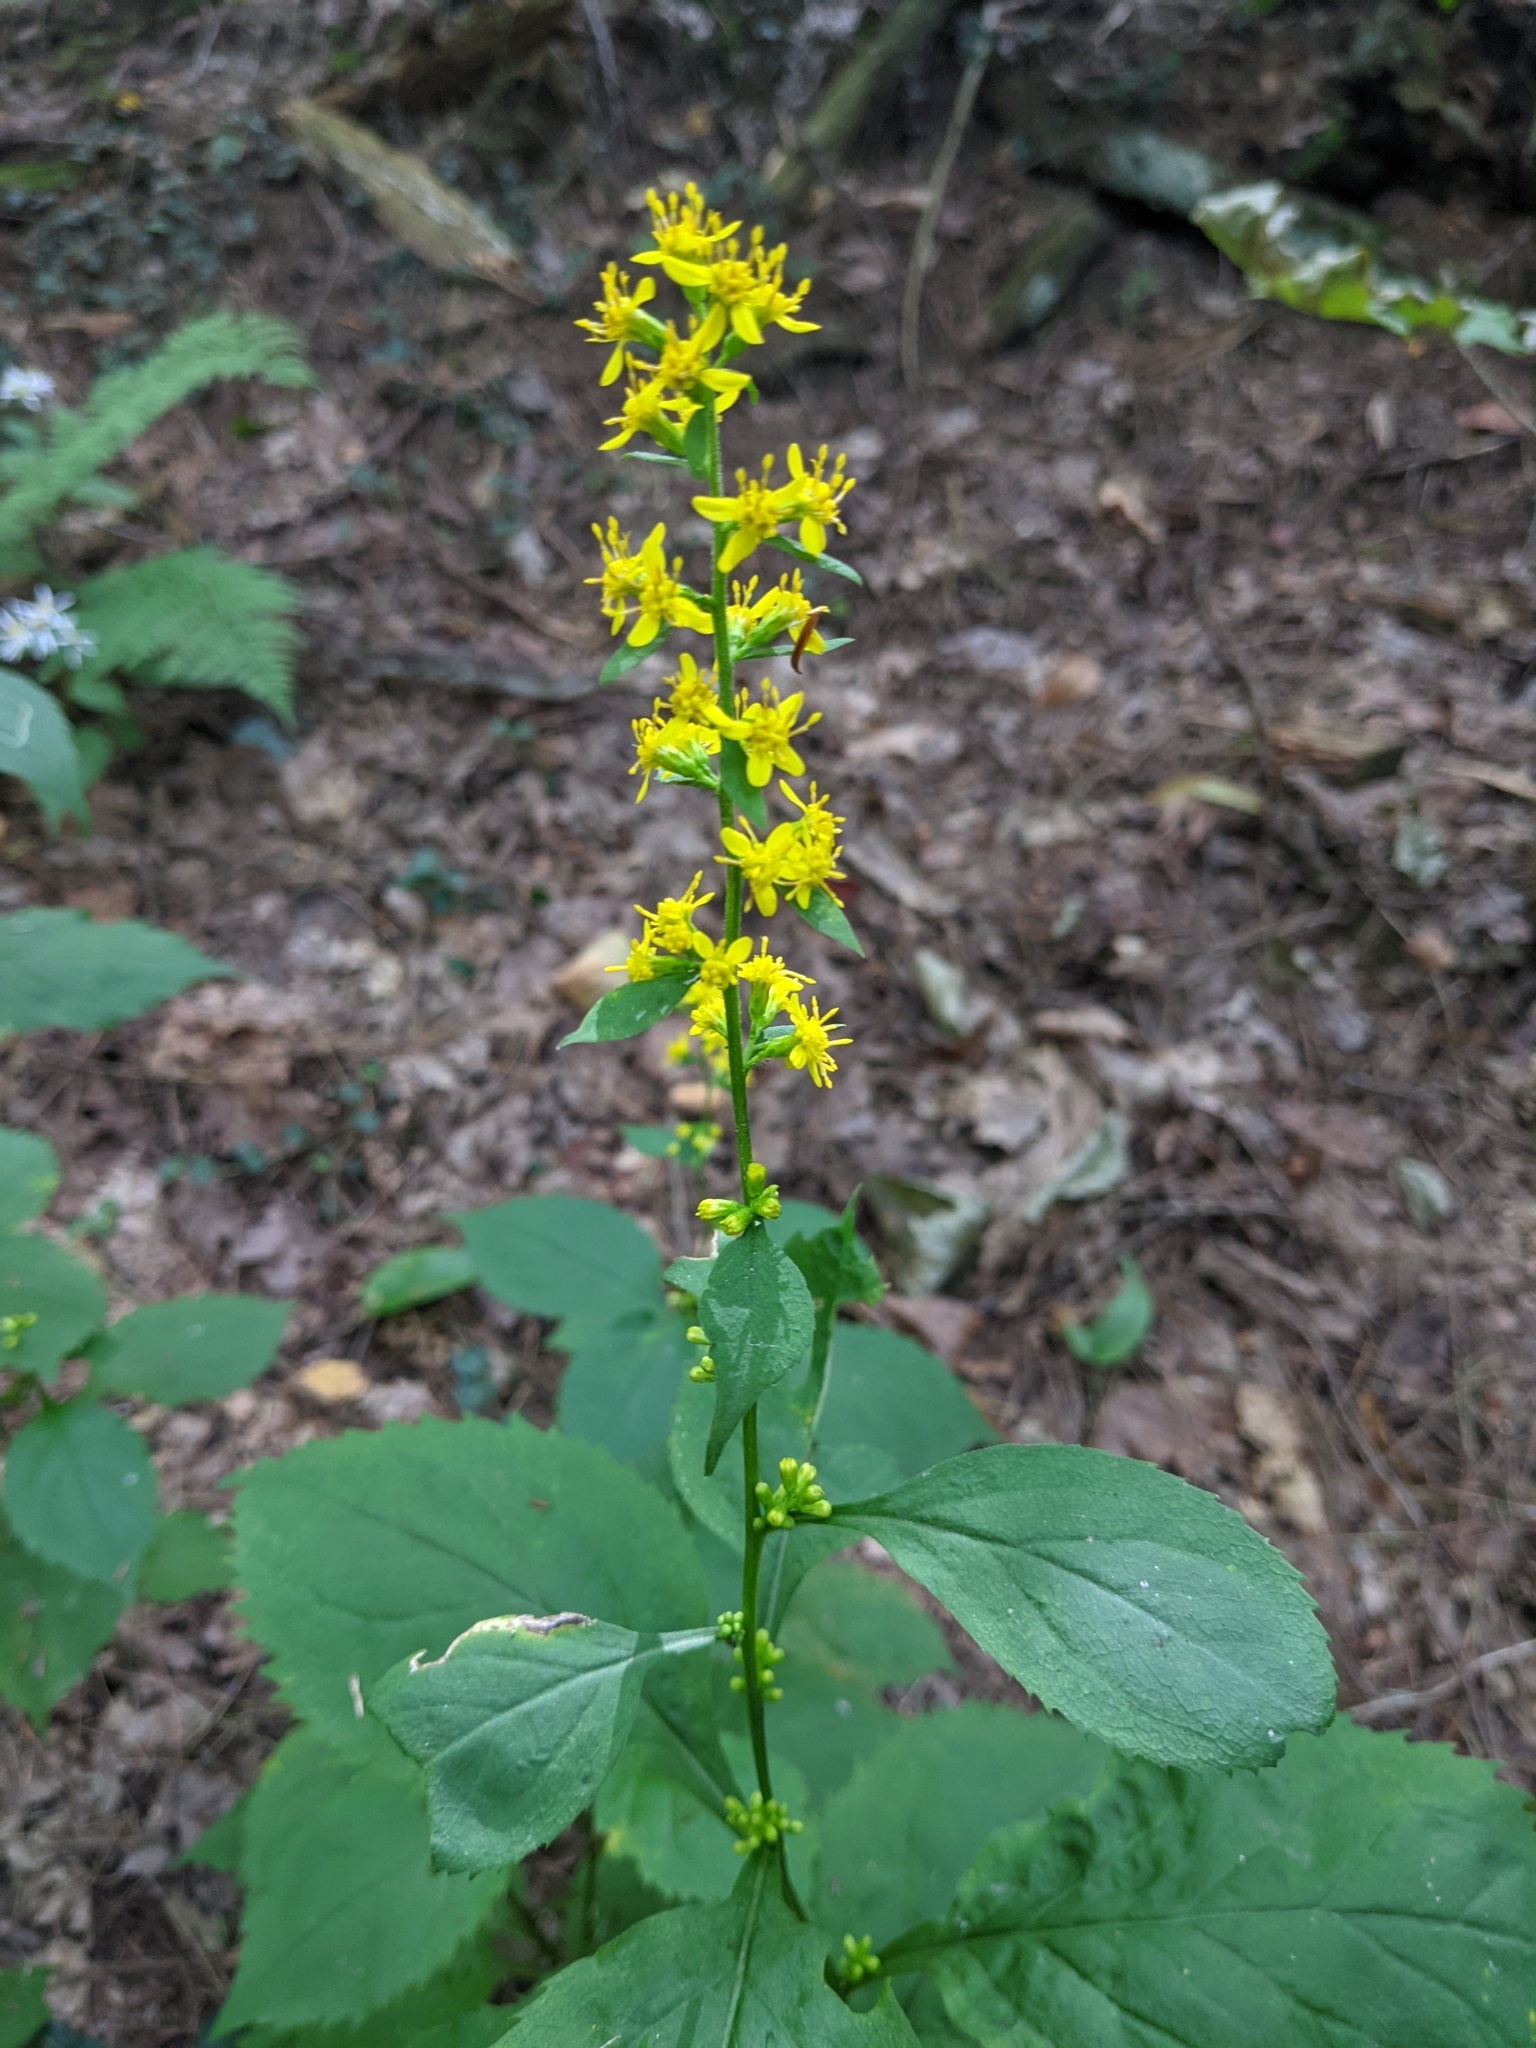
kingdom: Plantae
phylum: Tracheophyta
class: Magnoliopsida
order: Asterales
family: Asteraceae
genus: Solidago
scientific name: Solidago flexicaulis
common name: Zig-zag goldenrod
